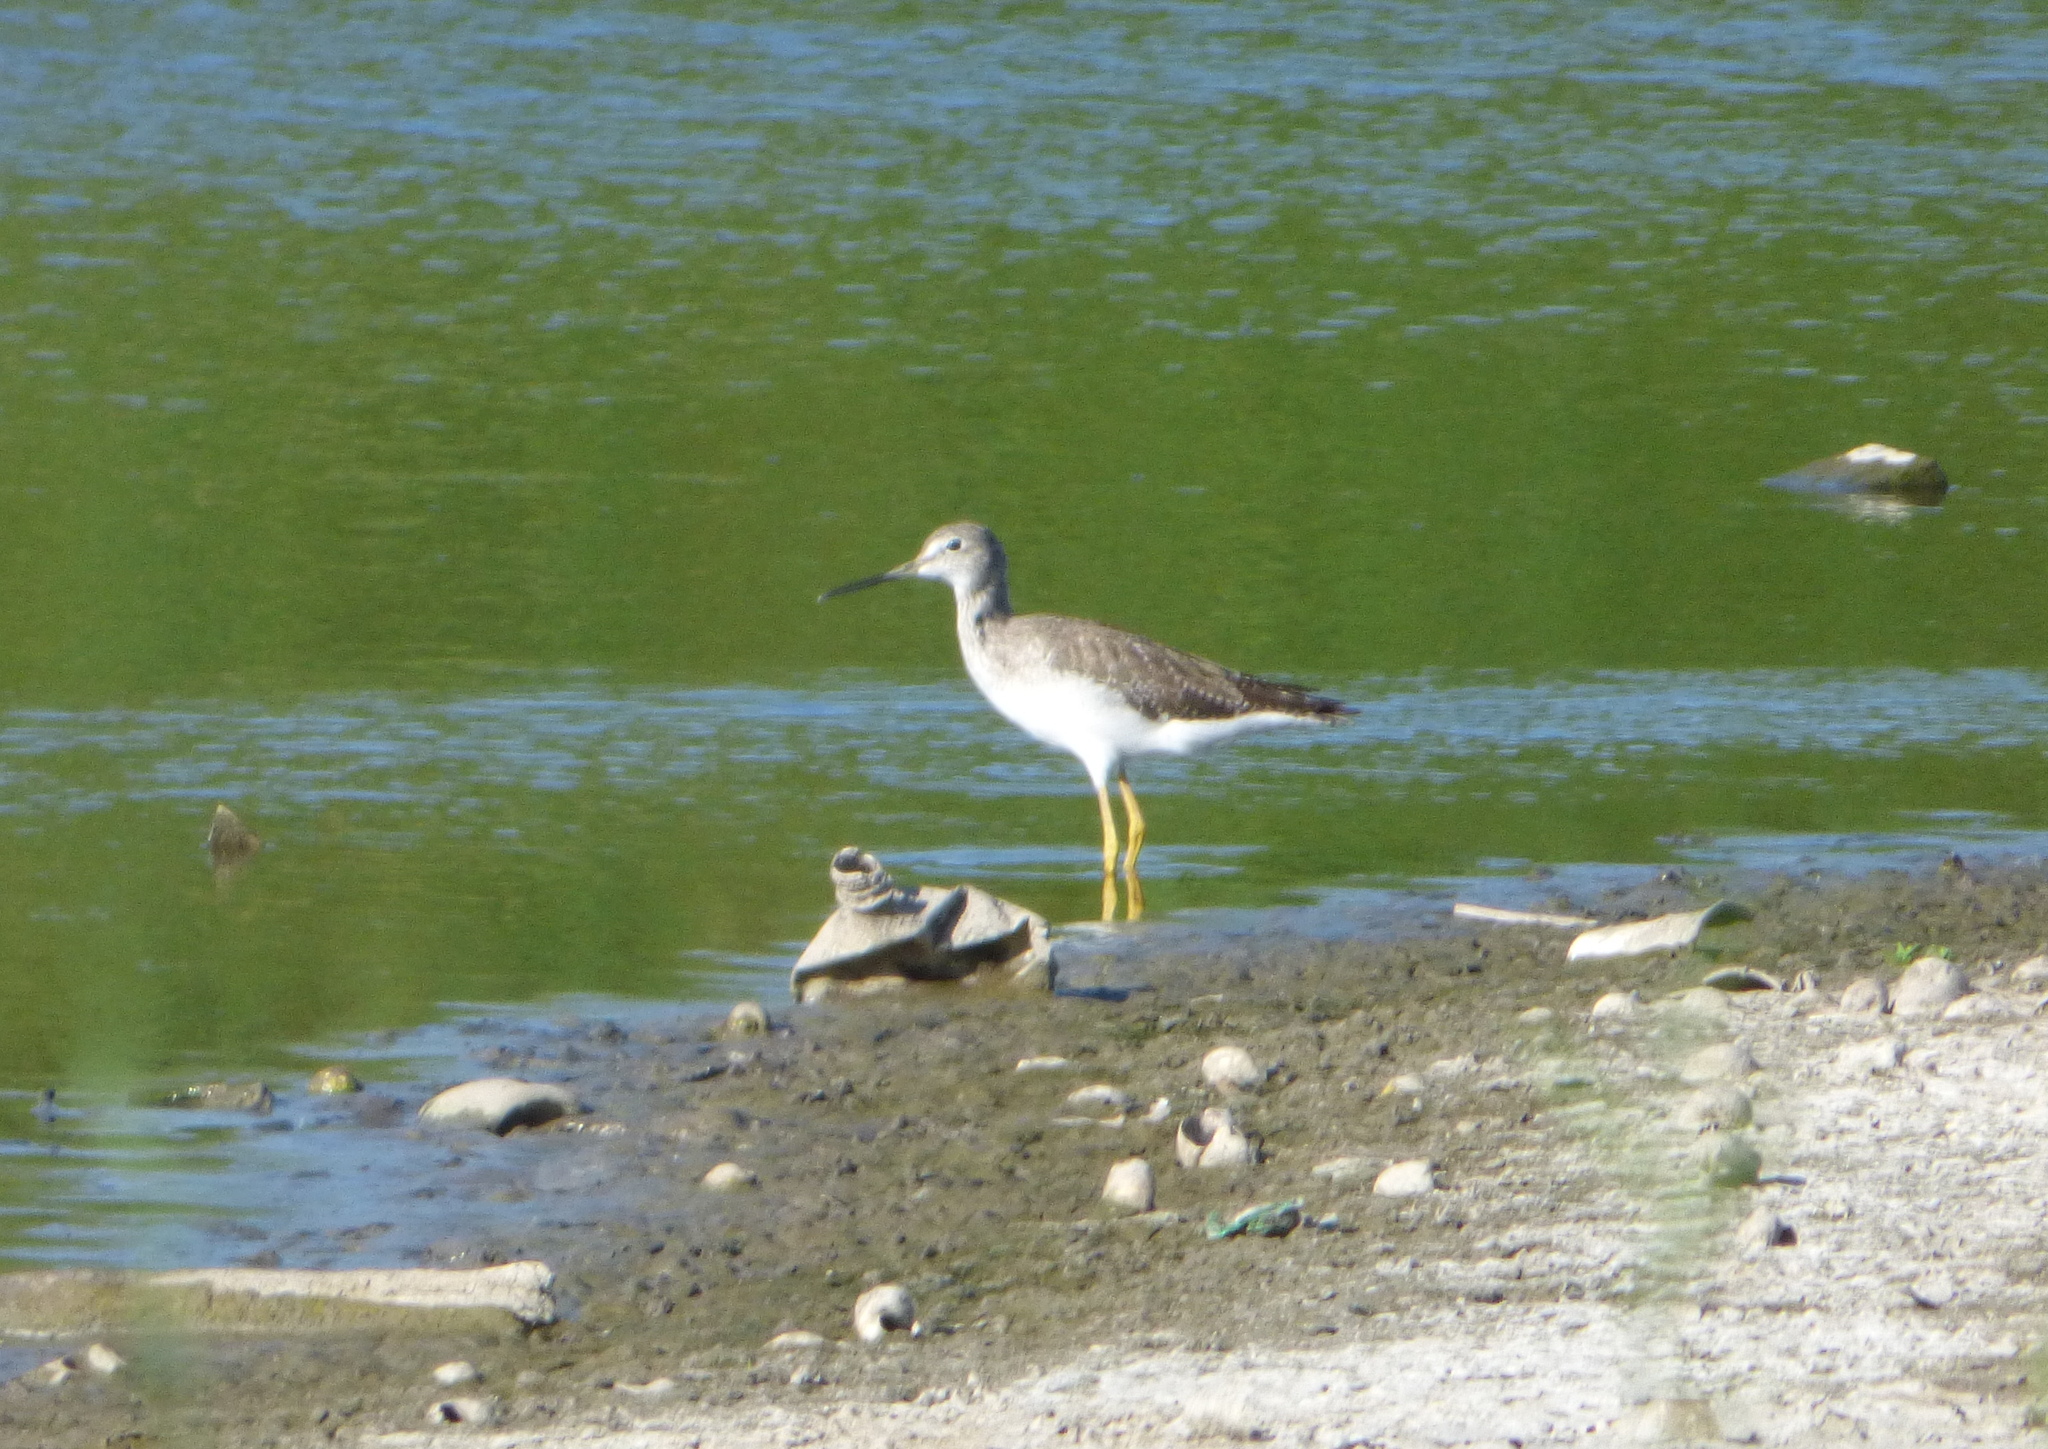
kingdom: Animalia
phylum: Chordata
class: Aves
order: Charadriiformes
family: Scolopacidae
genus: Tringa
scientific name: Tringa melanoleuca
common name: Greater yellowlegs
